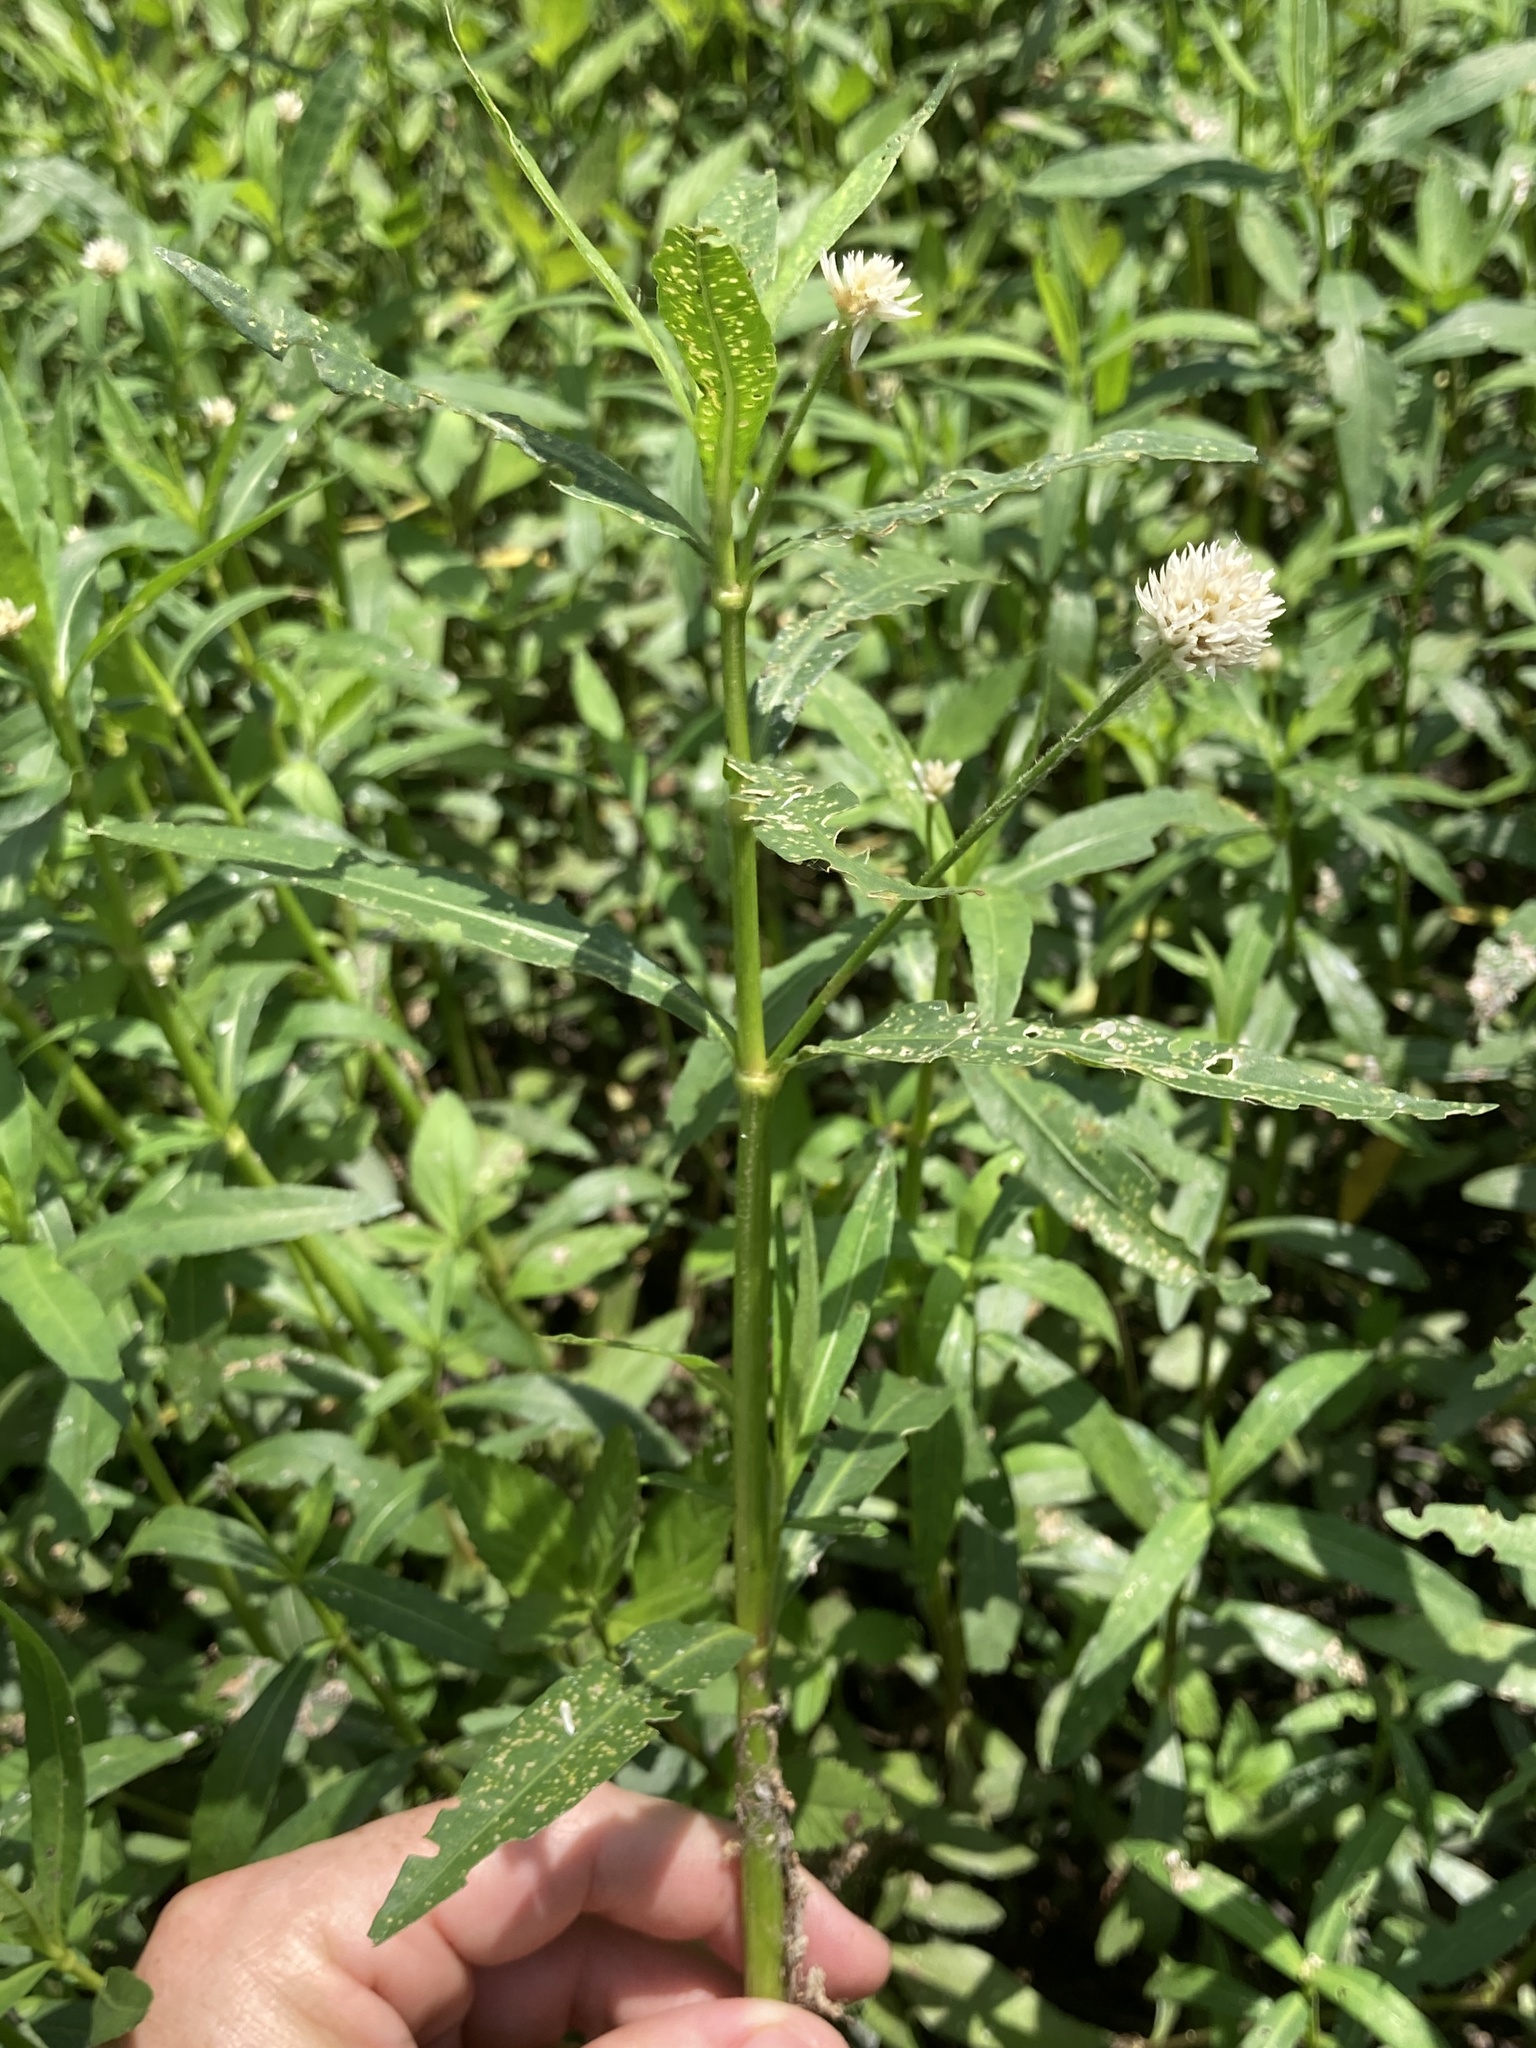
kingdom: Plantae
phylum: Tracheophyta
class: Magnoliopsida
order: Caryophyllales
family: Amaranthaceae
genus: Alternanthera
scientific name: Alternanthera philoxeroides
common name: Alligatorweed
